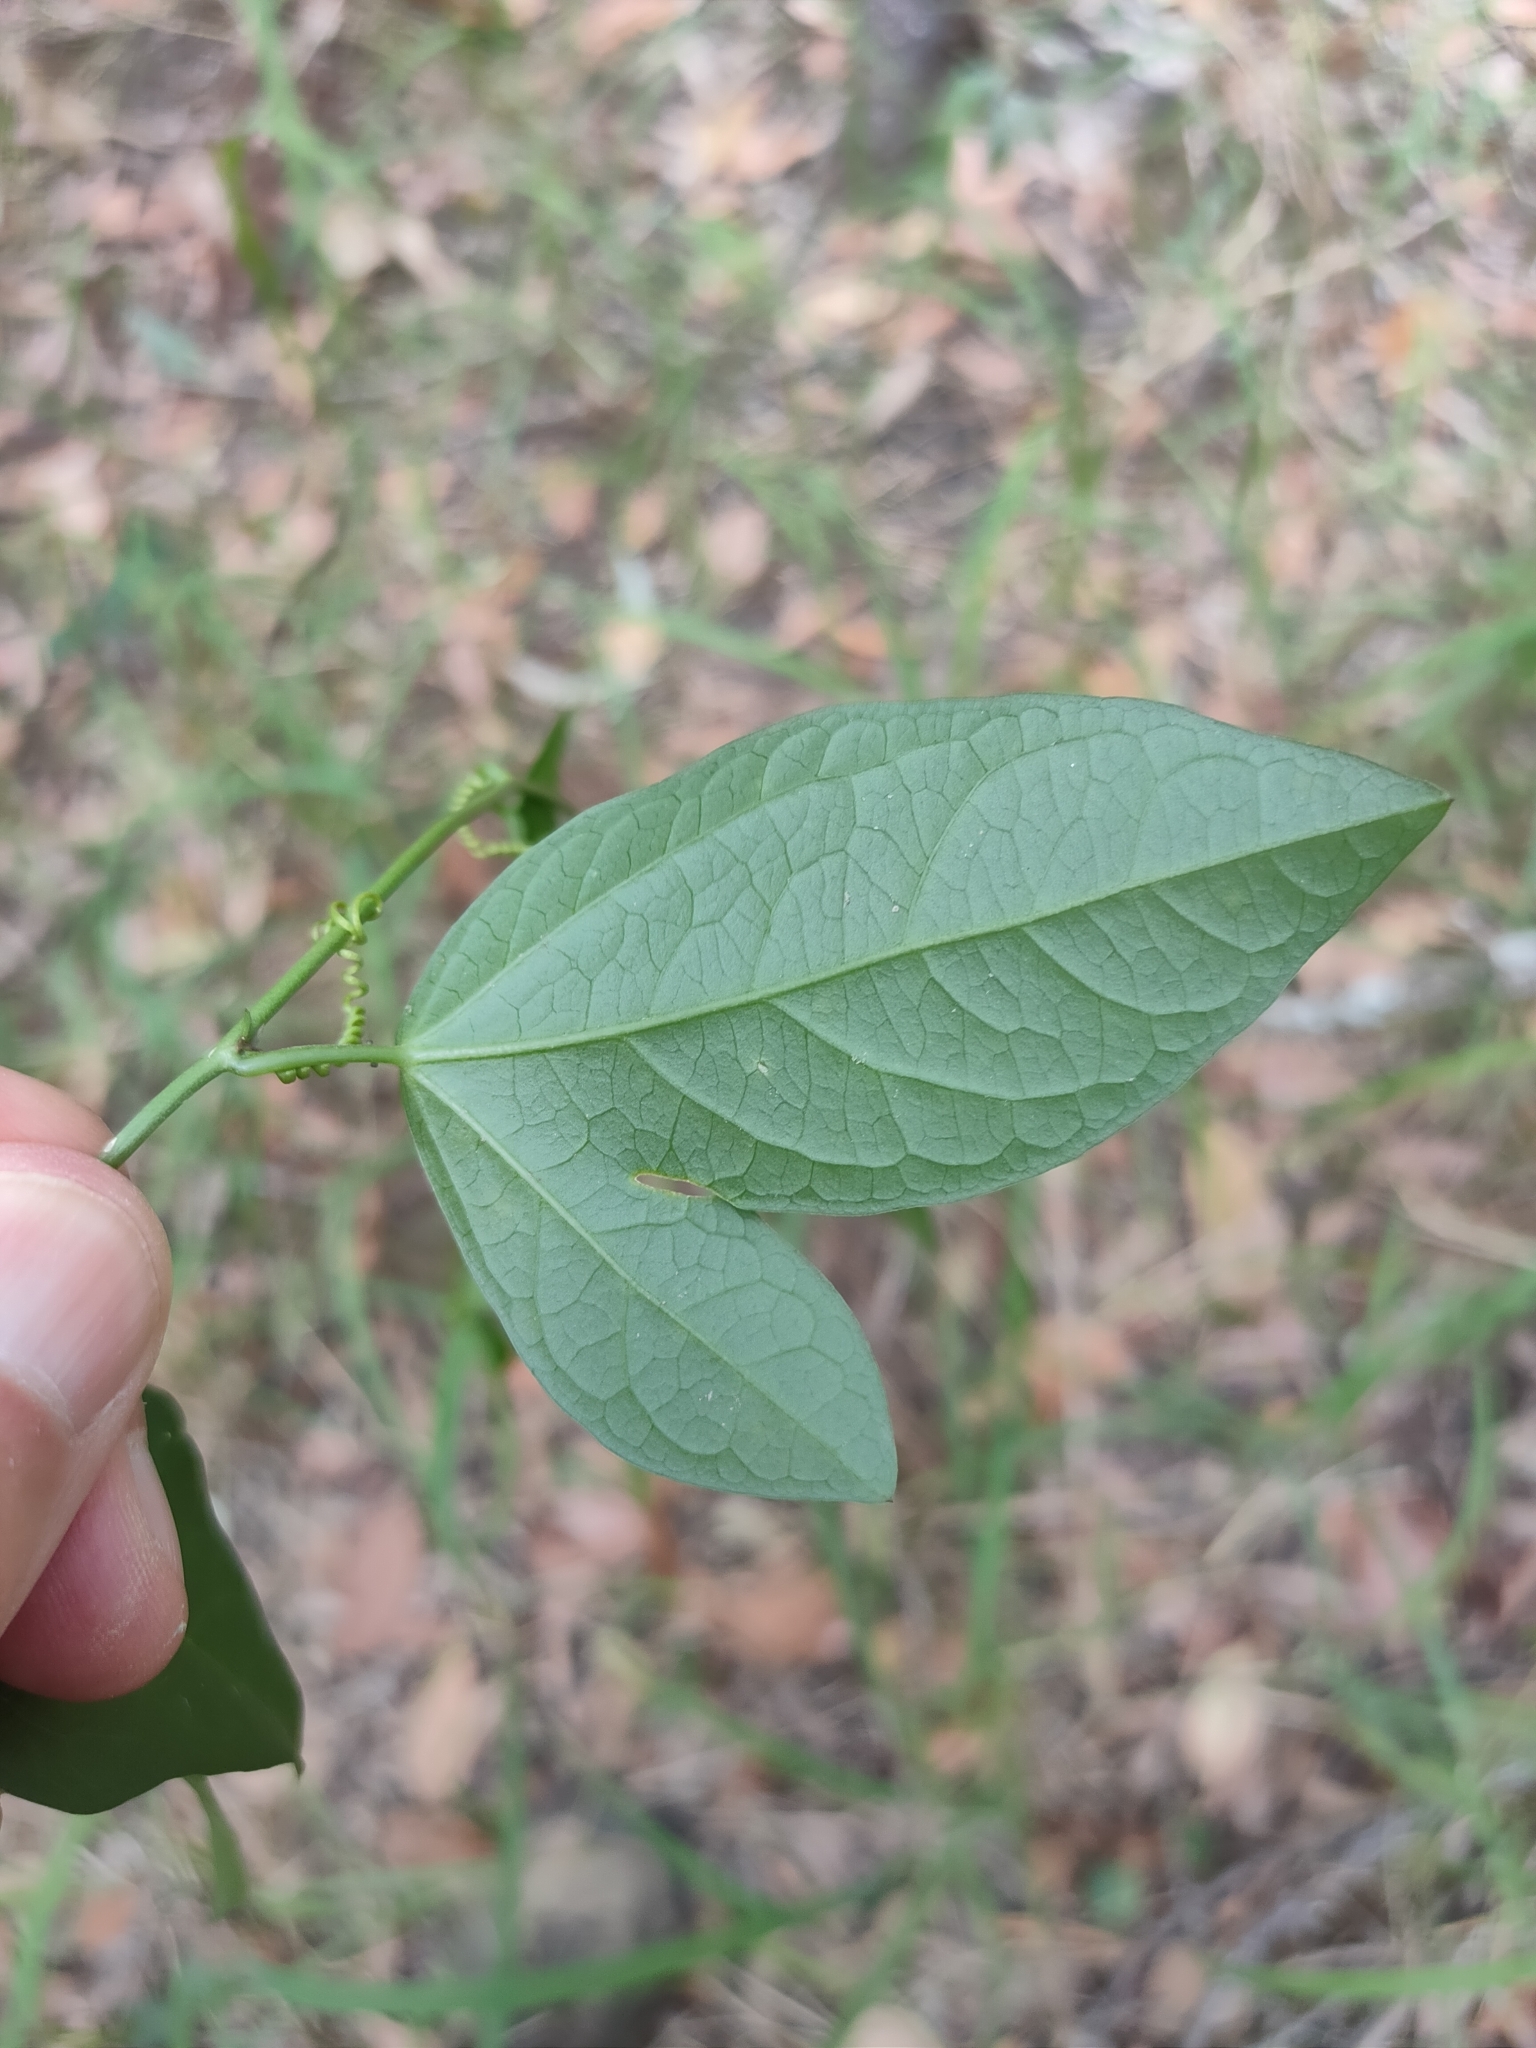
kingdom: Plantae
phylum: Tracheophyta
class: Magnoliopsida
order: Malpighiales
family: Passifloraceae
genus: Passiflora
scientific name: Passiflora pallida
